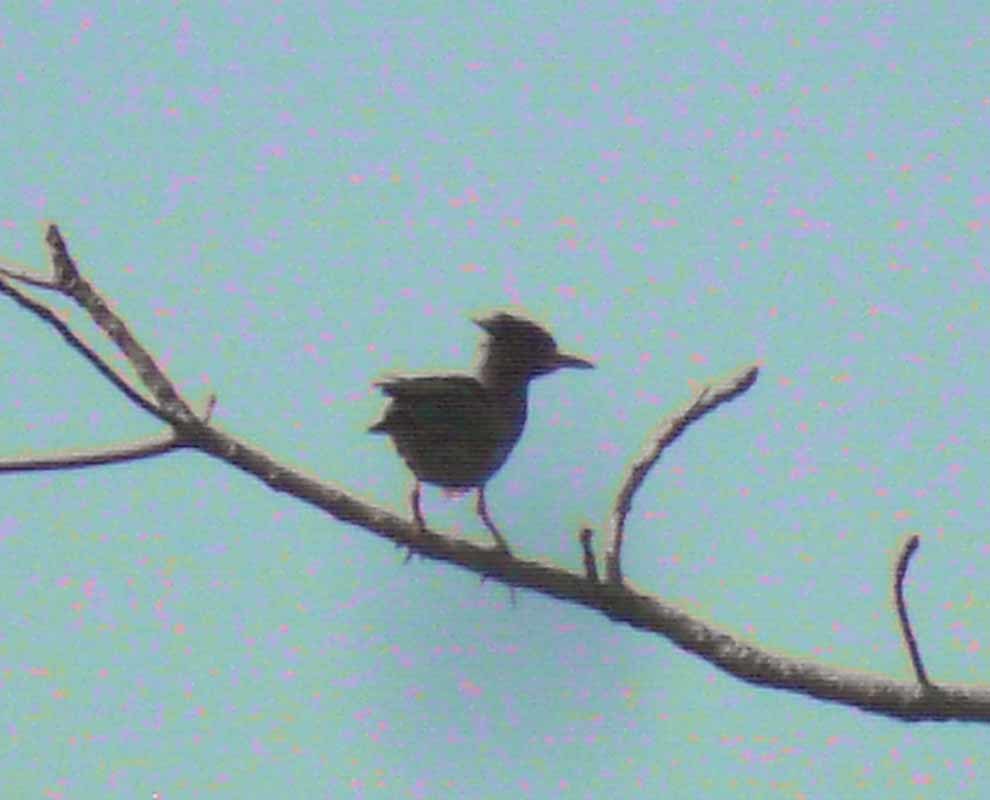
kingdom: Animalia
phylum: Chordata
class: Aves
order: Pelecaniformes
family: Ardeidae
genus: Butorides
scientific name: Butorides virescens
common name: Green heron
